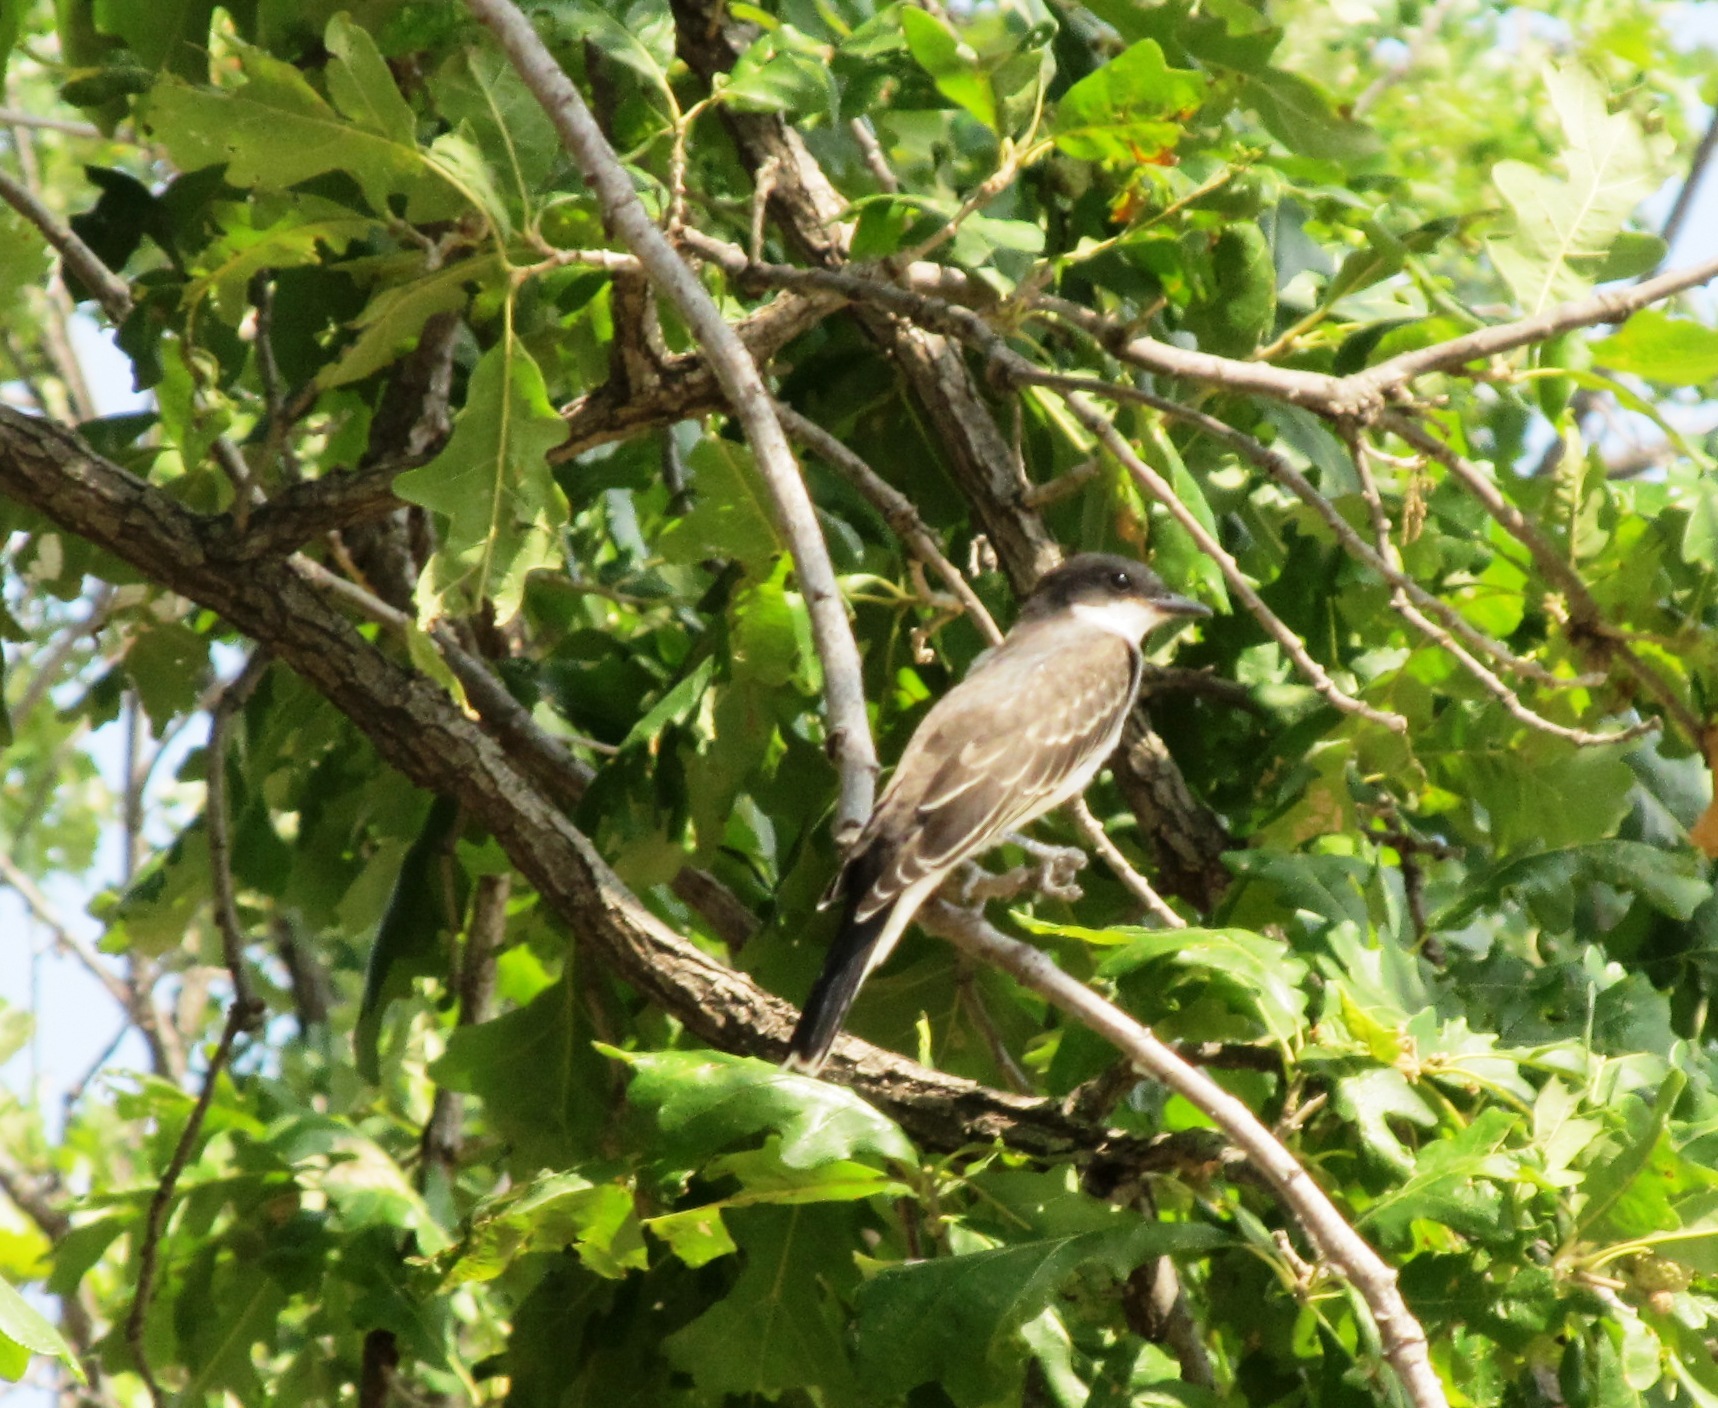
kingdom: Animalia
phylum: Chordata
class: Aves
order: Passeriformes
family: Tyrannidae
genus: Tyrannus
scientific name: Tyrannus tyrannus
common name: Eastern kingbird
